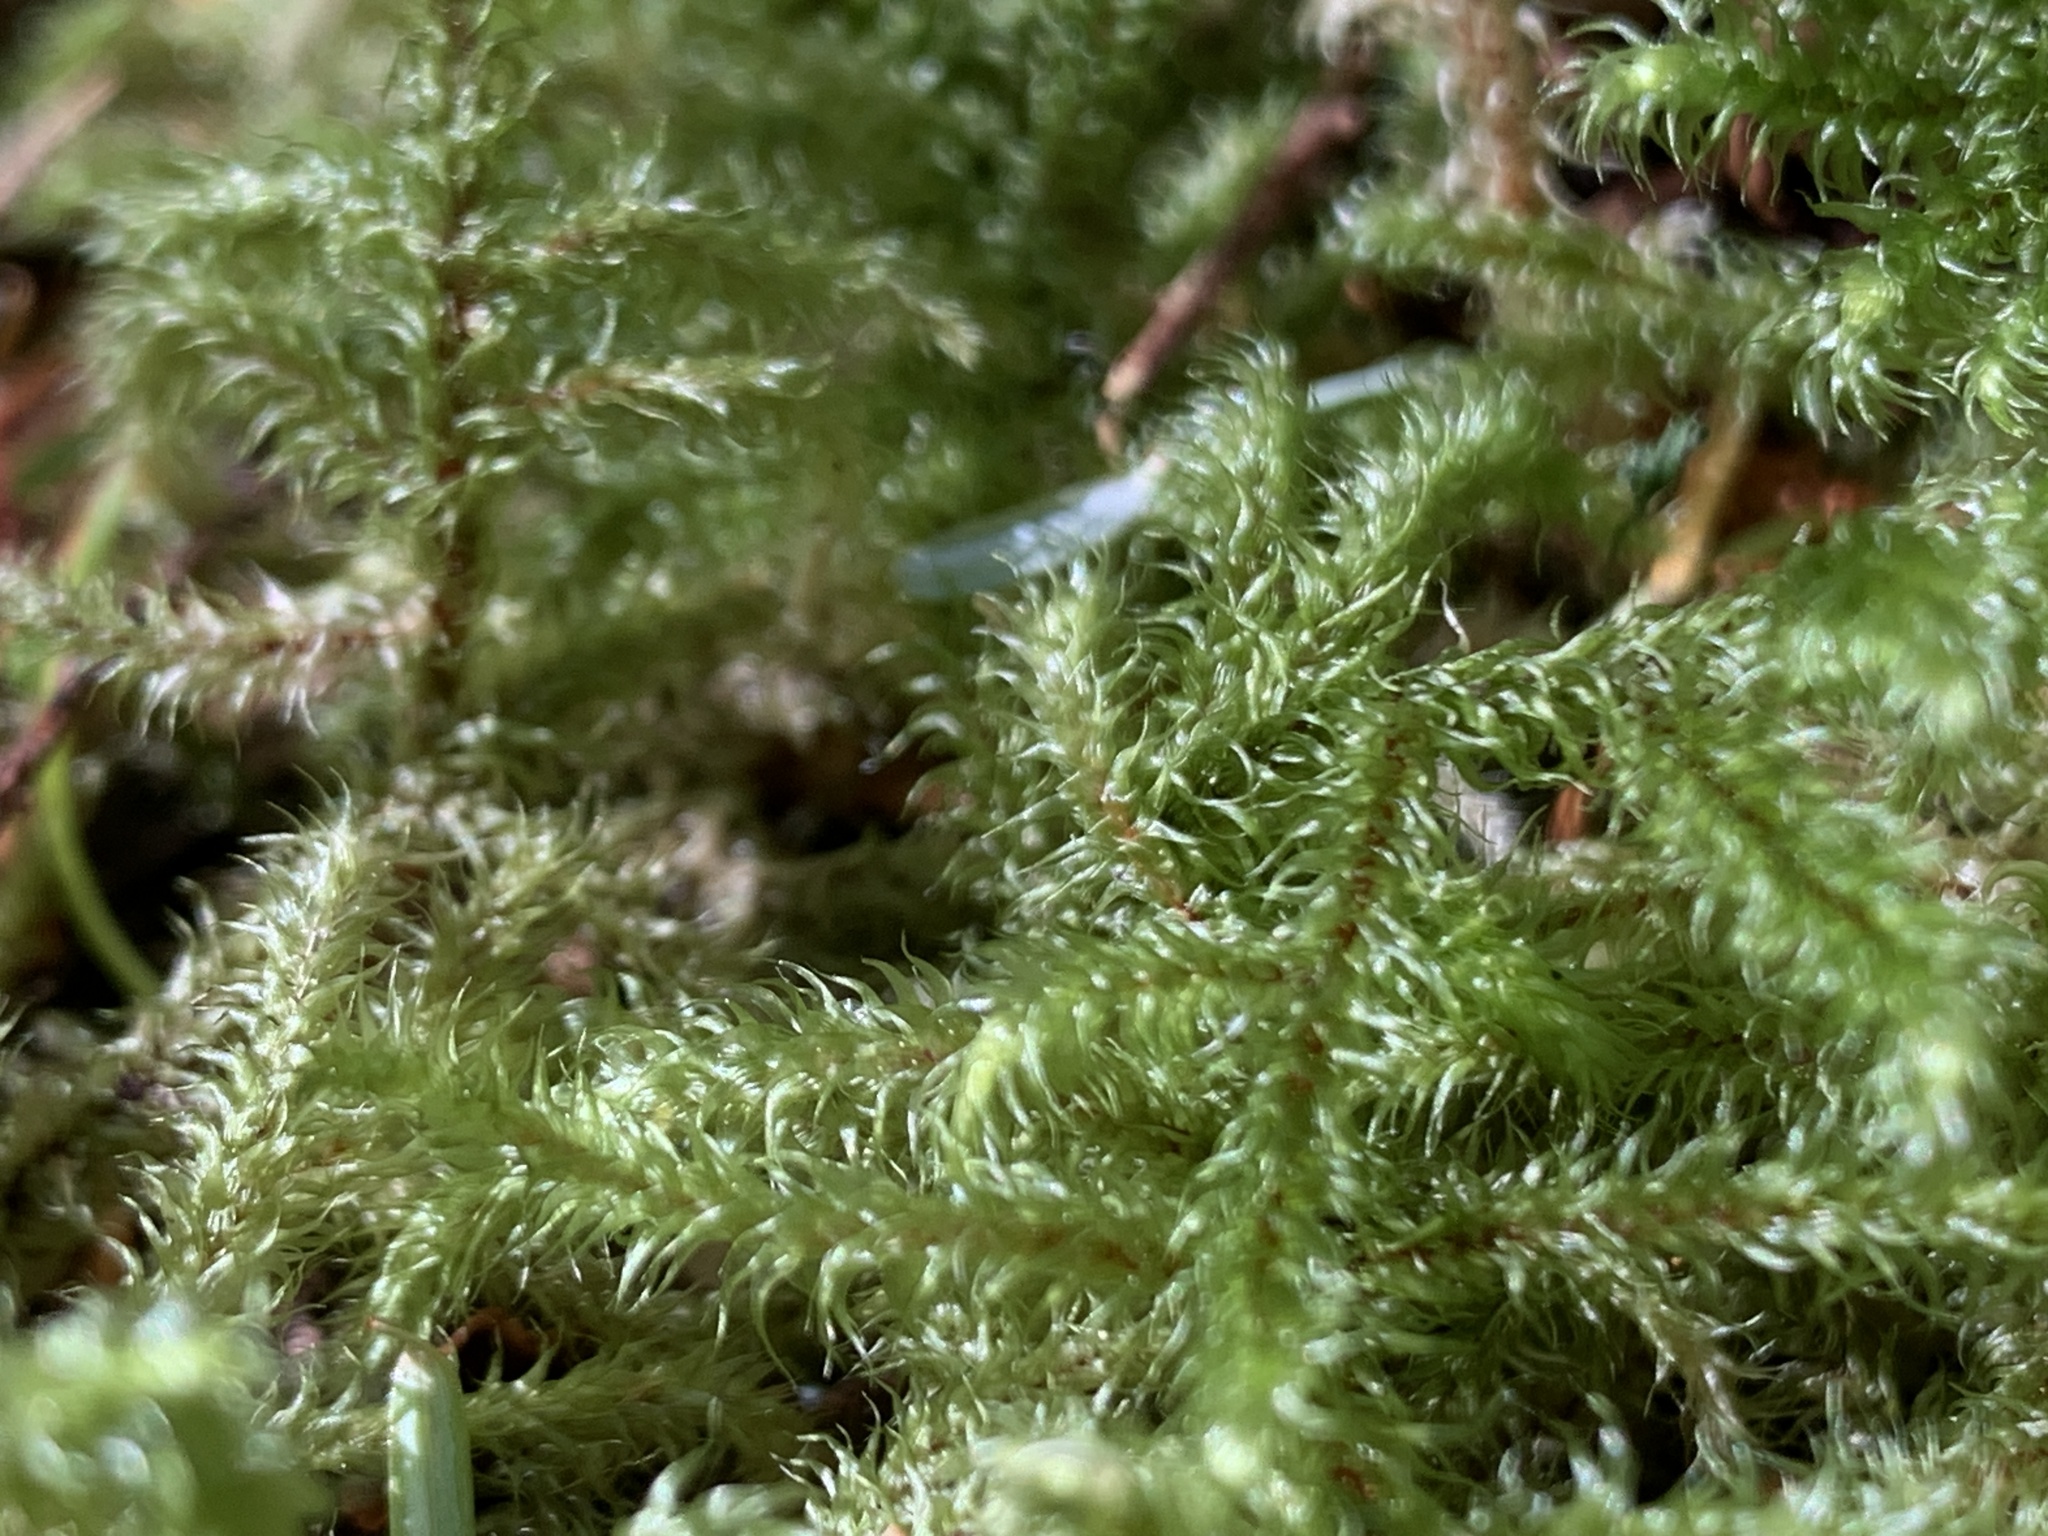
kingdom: Plantae
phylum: Bryophyta
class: Bryopsida
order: Hypnales
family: Hylocomiaceae
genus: Rhytidiadelphus
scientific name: Rhytidiadelphus loreus
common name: Lanky moss
